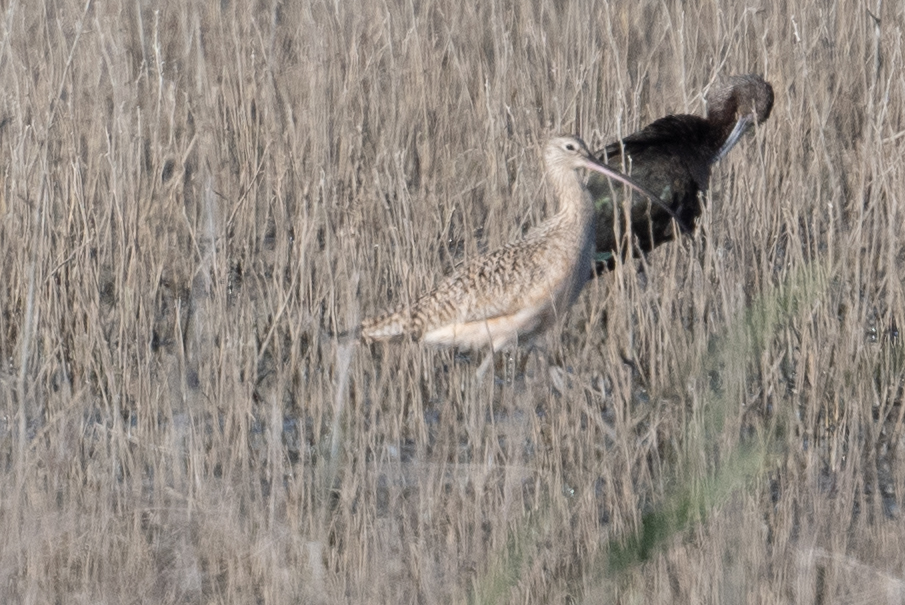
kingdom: Animalia
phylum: Chordata
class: Aves
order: Charadriiformes
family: Scolopacidae
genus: Numenius
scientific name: Numenius americanus
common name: Long-billed curlew
